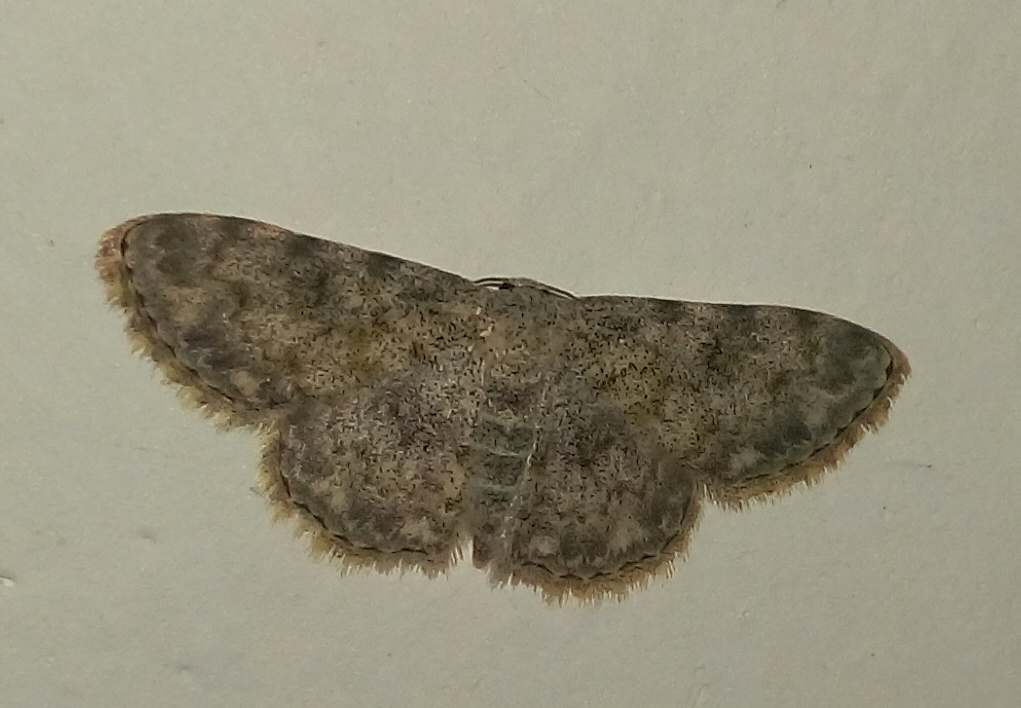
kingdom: Animalia
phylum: Arthropoda
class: Insecta
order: Lepidoptera
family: Geometridae
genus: Scopula
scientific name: Scopula fibulata
